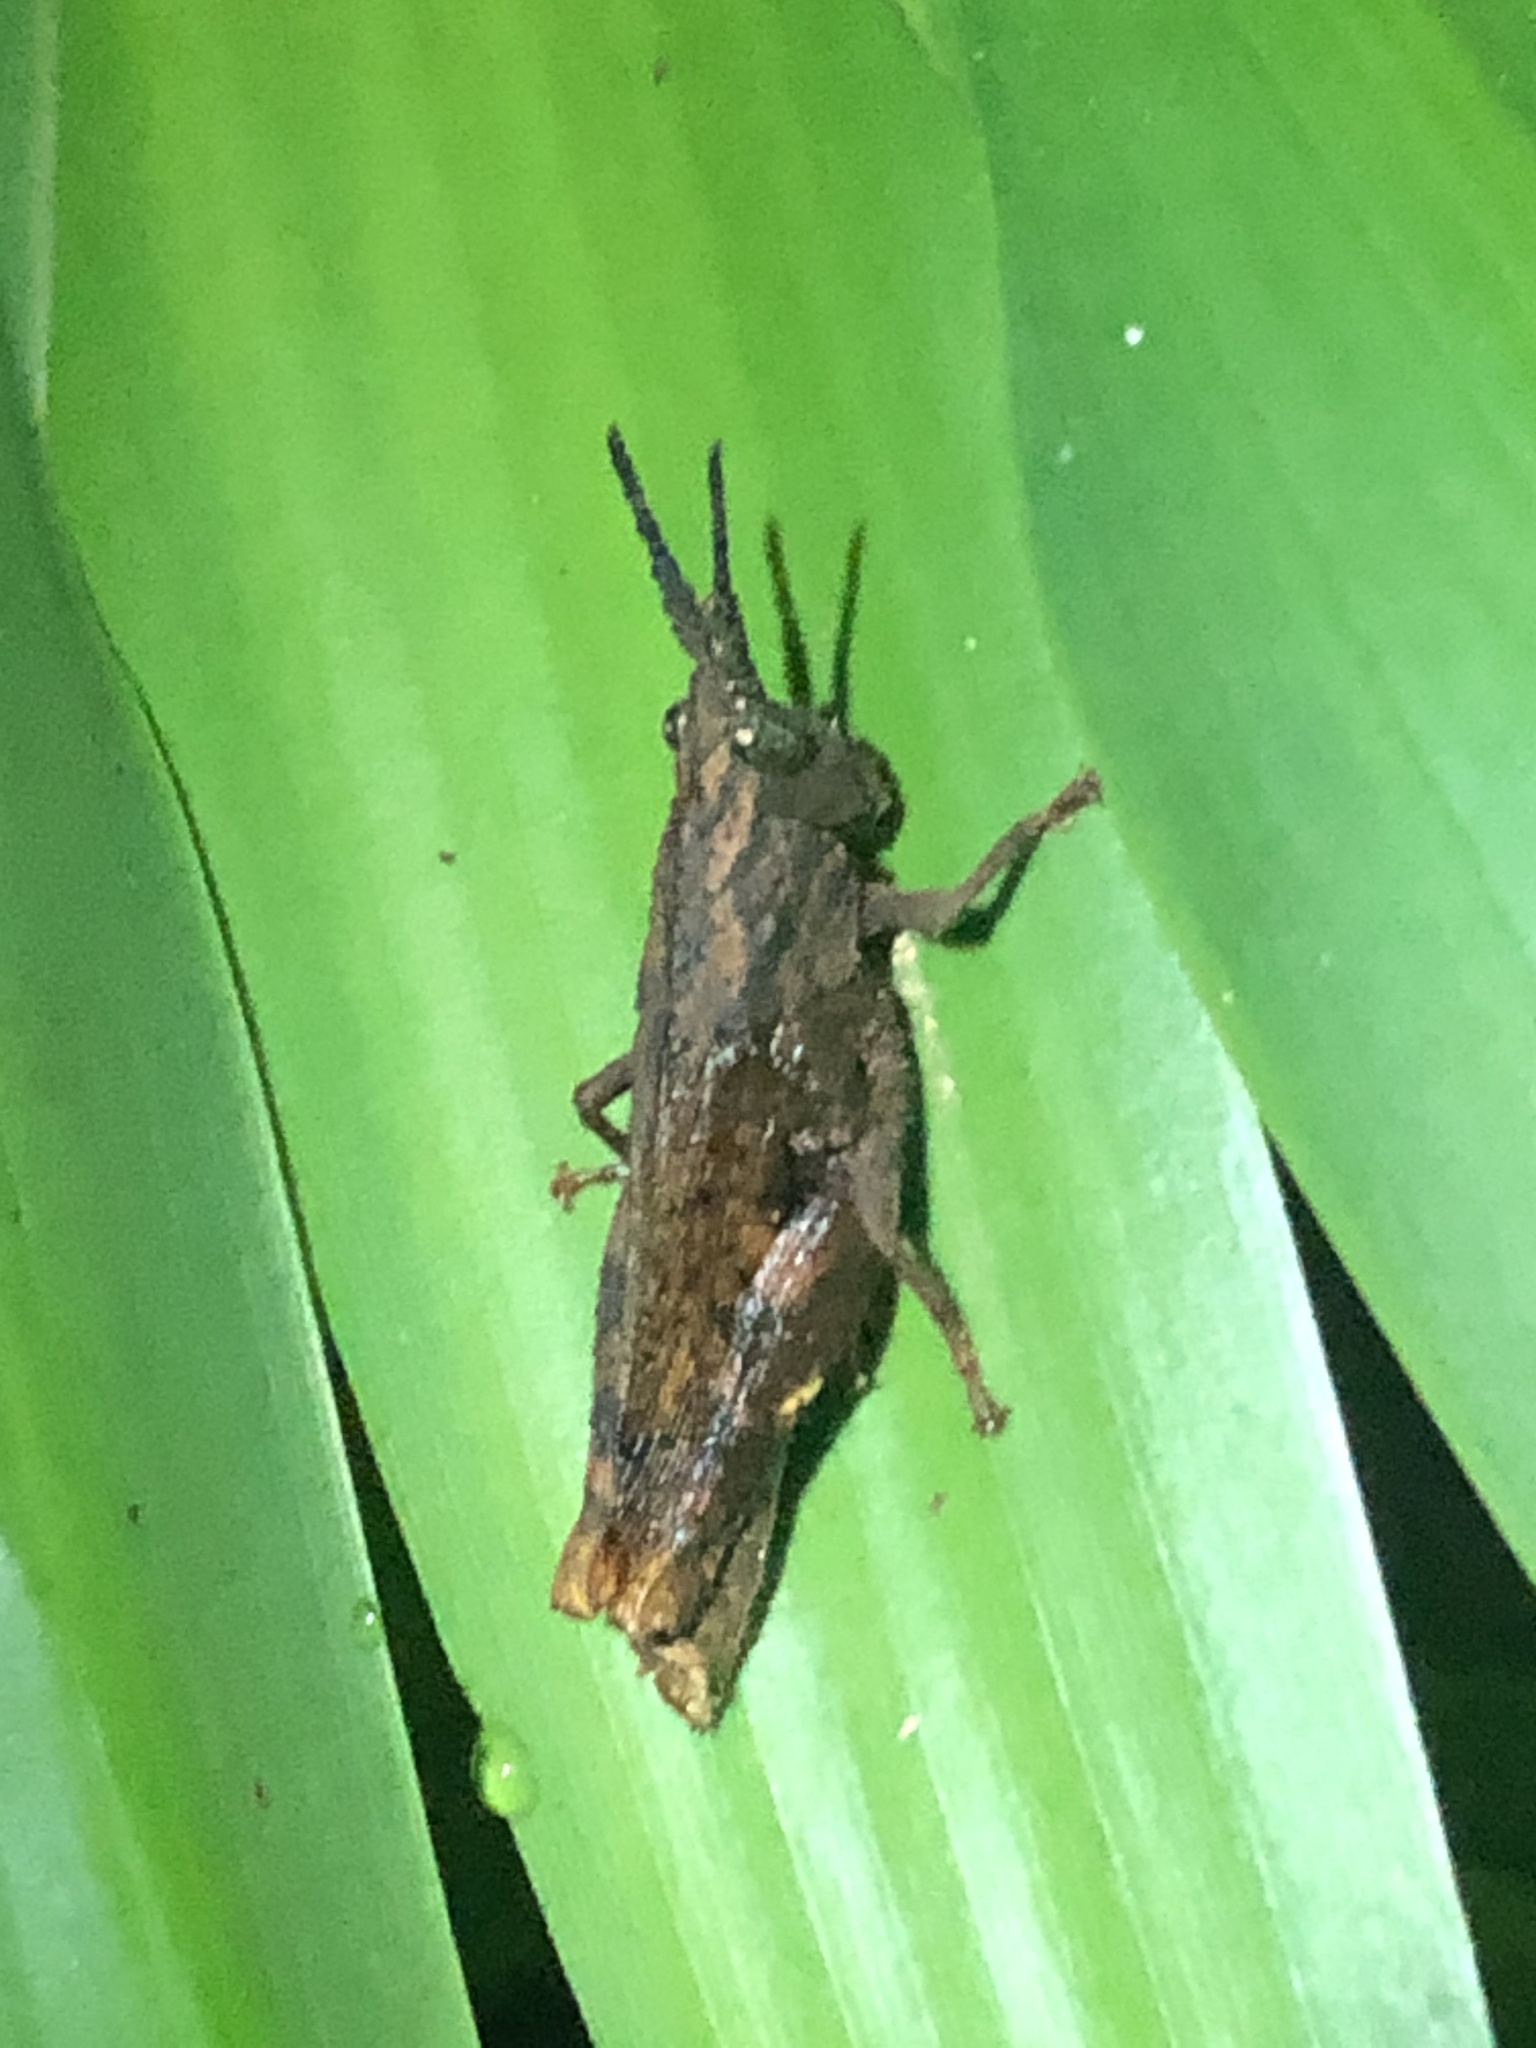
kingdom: Animalia
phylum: Arthropoda
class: Insecta
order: Orthoptera
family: Acrididae
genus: Locheuma
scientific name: Locheuma brunneri
